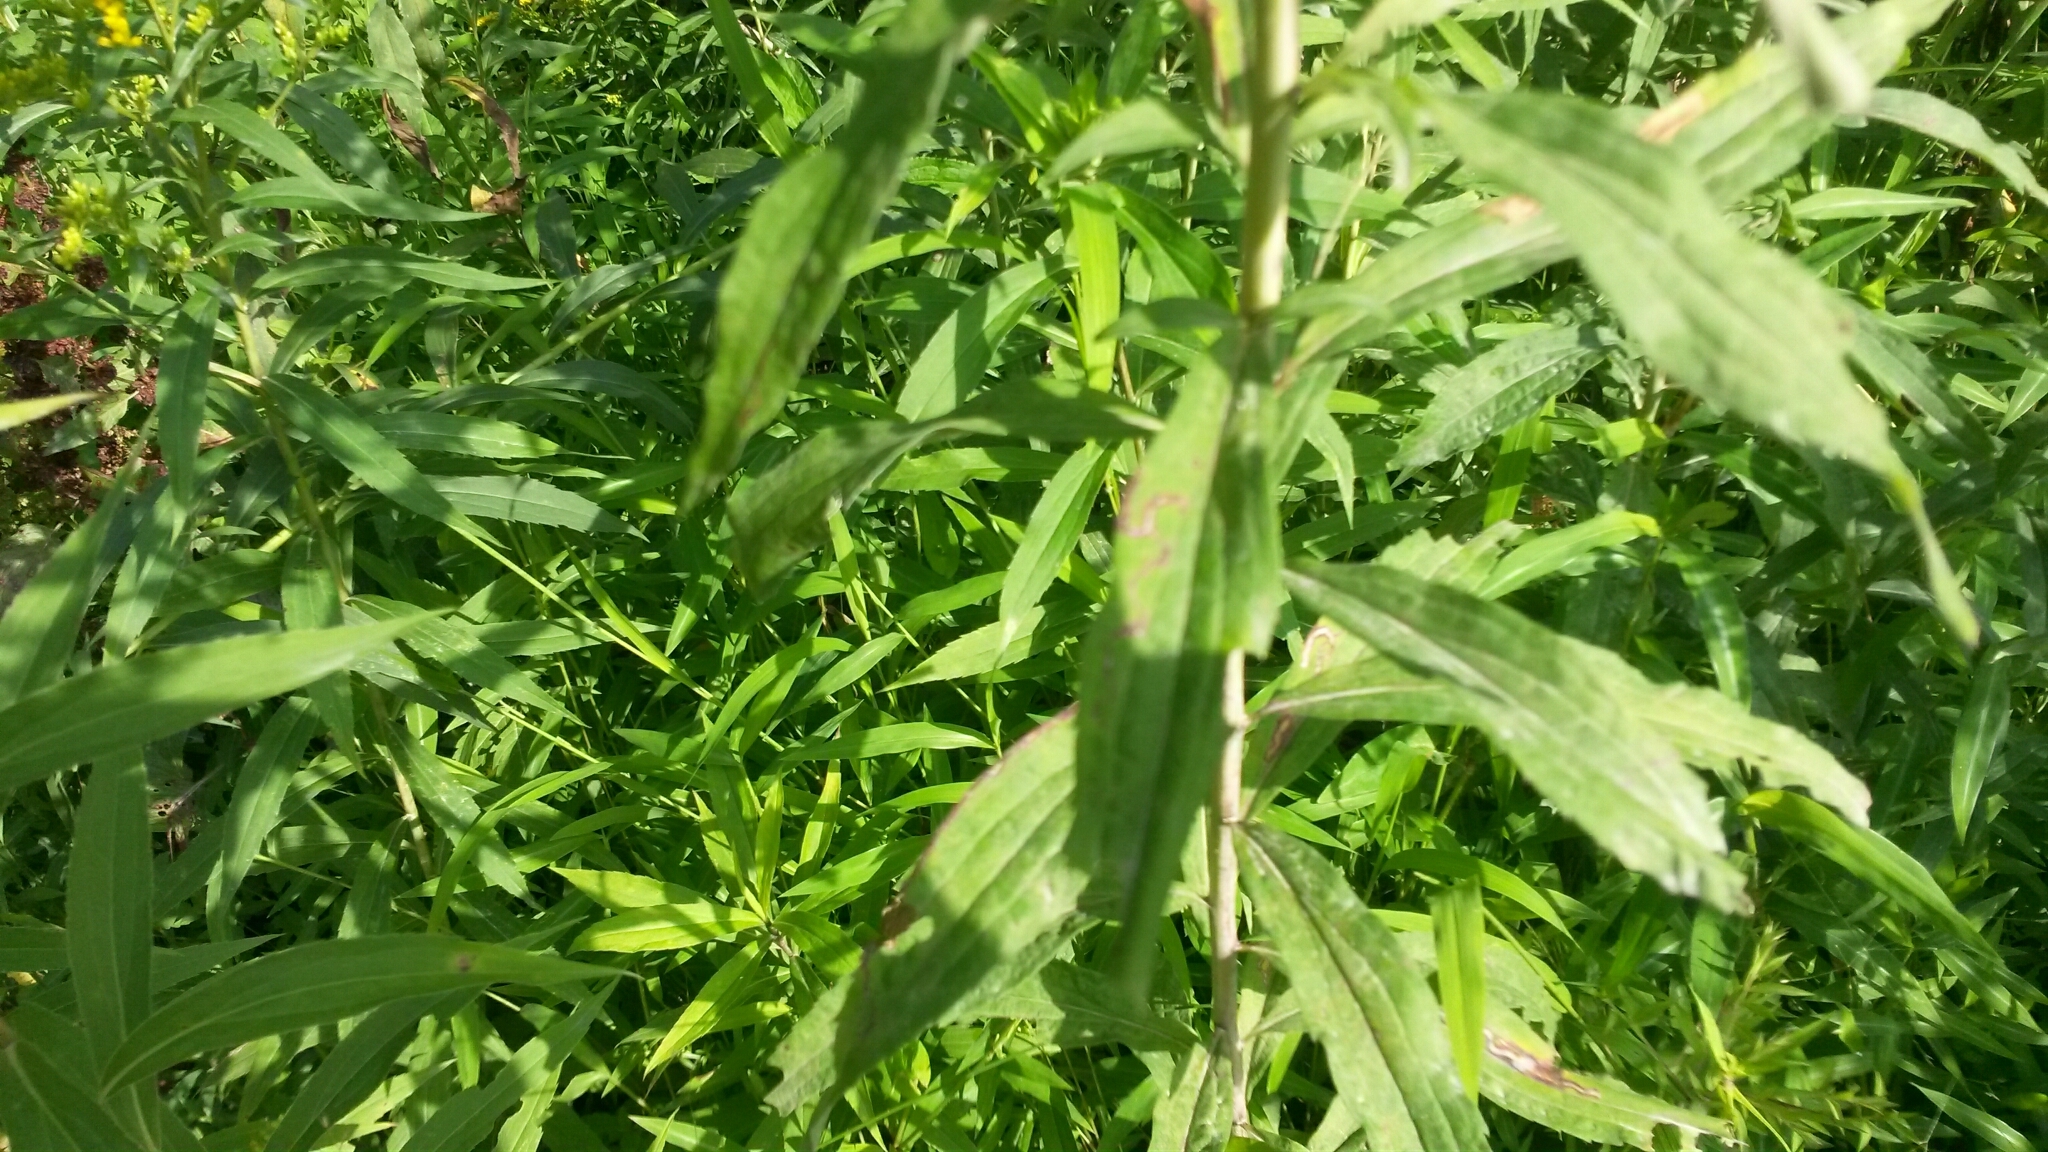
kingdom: Plantae
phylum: Tracheophyta
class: Magnoliopsida
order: Asterales
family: Asteraceae
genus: Solidago
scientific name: Solidago juncea
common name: Early goldenrod
